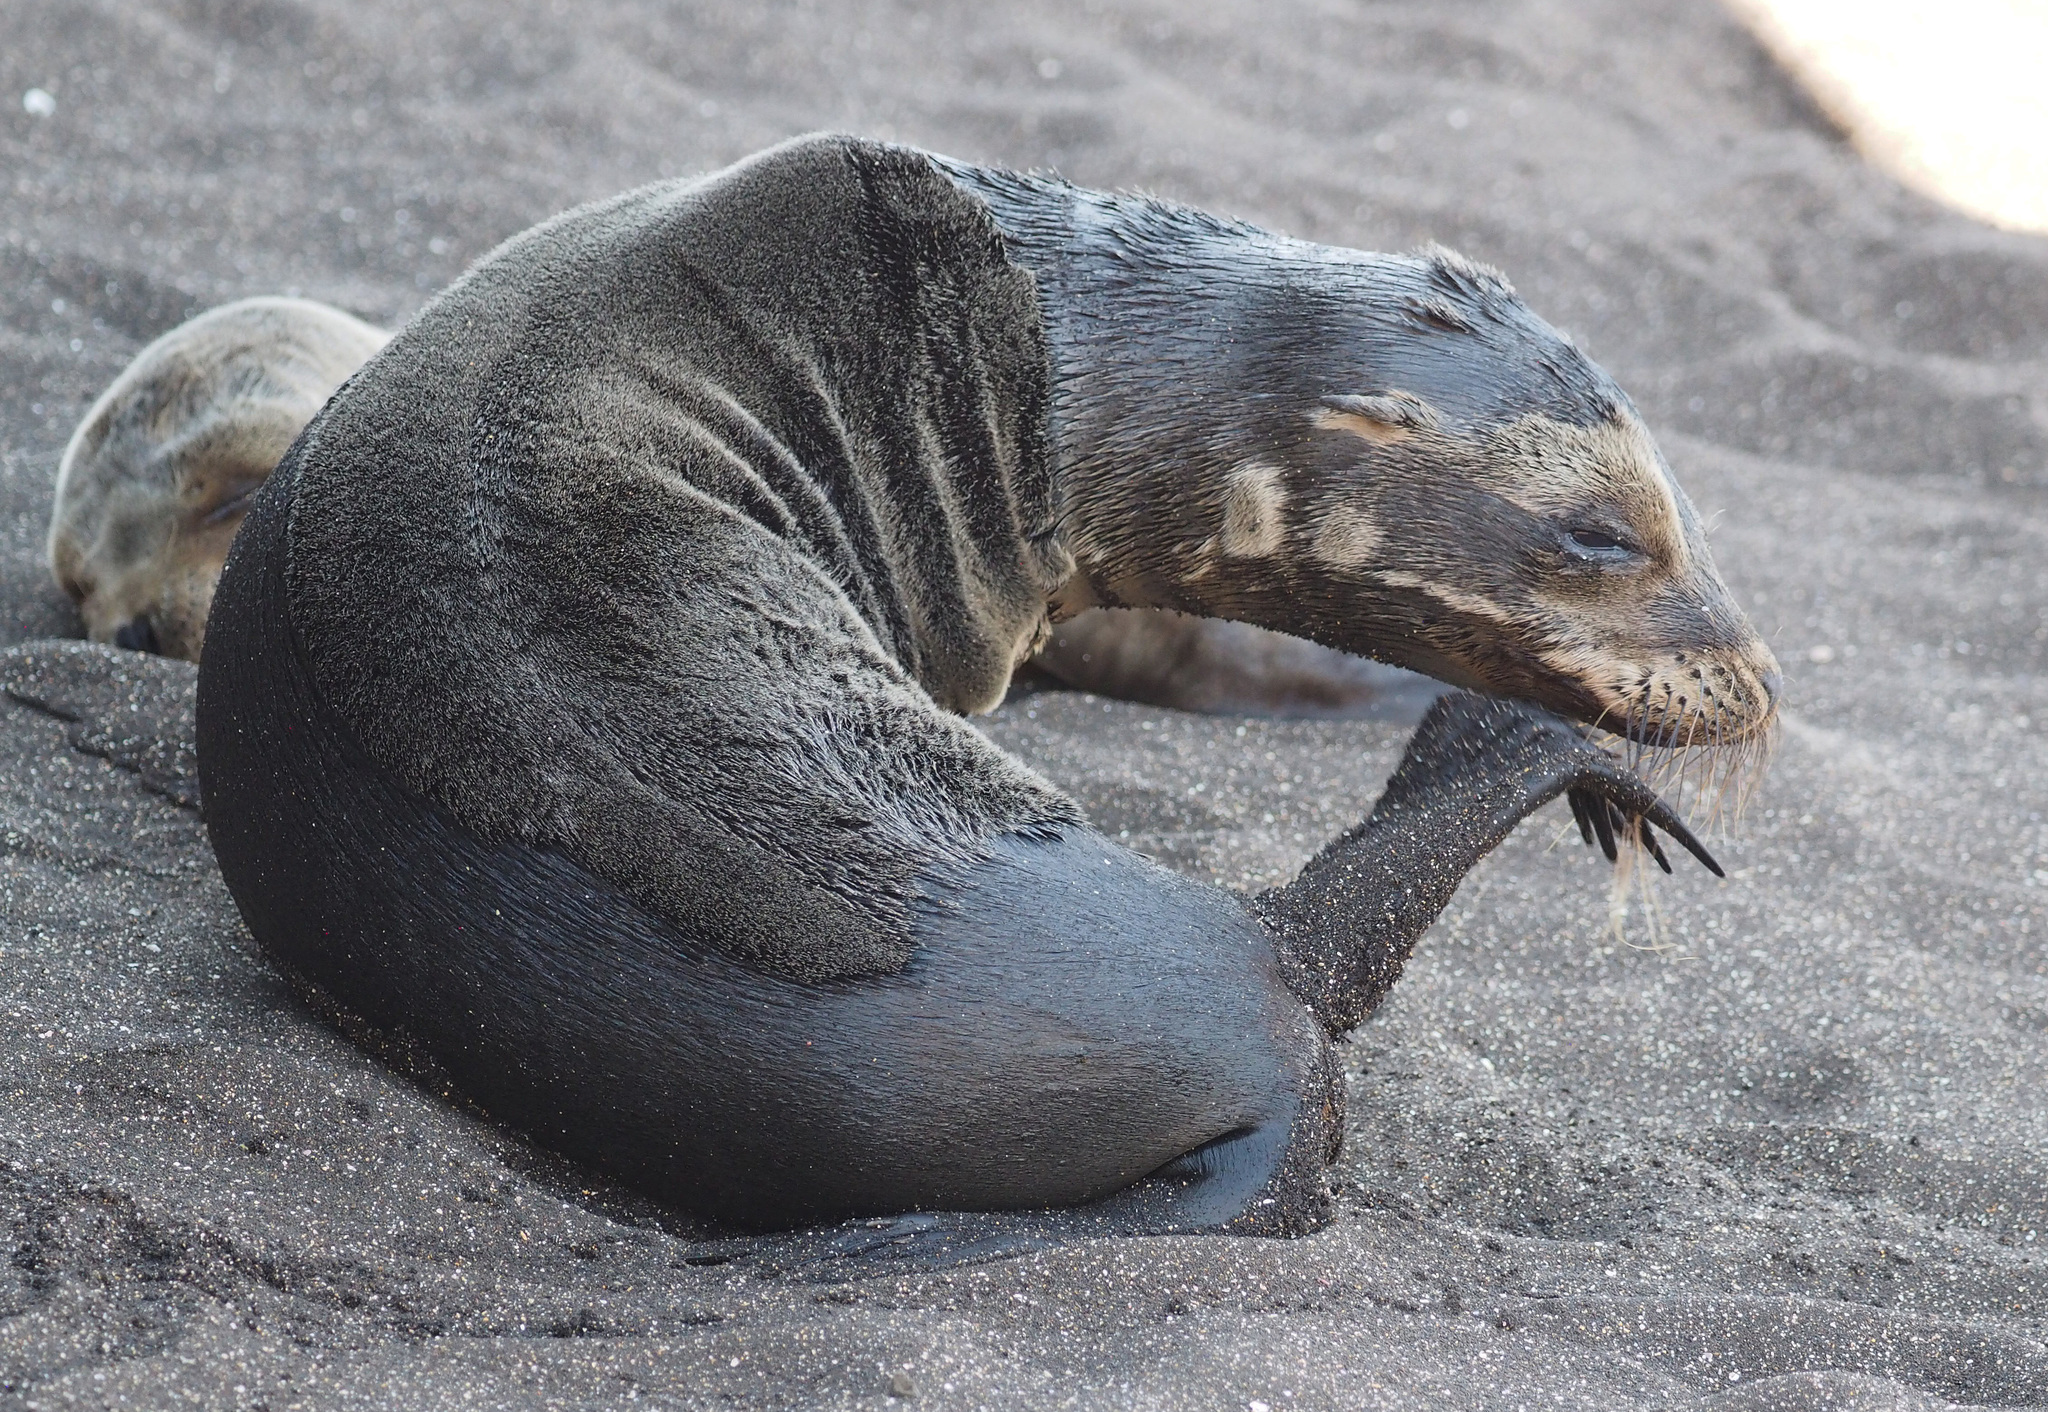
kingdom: Animalia
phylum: Chordata
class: Mammalia
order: Carnivora
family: Otariidae
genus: Zalophus
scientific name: Zalophus wollebaeki
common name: Galapagos sea lion
